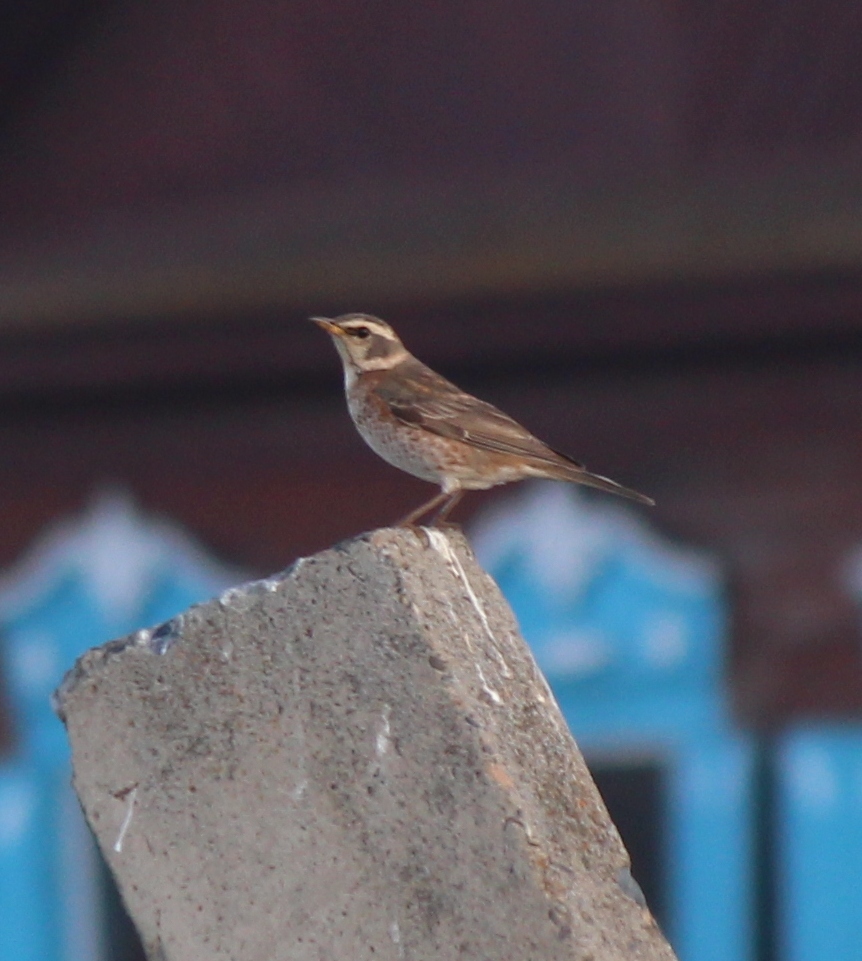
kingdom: Animalia
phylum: Chordata
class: Aves
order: Passeriformes
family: Turdidae
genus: Turdus
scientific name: Turdus naumanni
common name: Naumann's thrush
